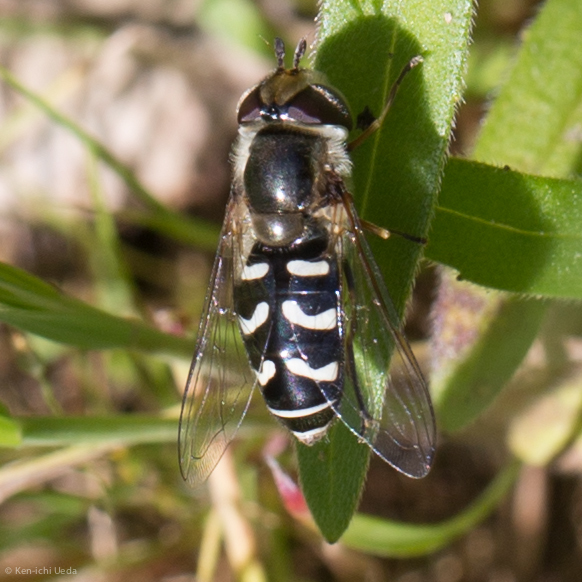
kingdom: Animalia
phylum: Arthropoda
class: Insecta
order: Diptera
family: Syrphidae
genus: Scaeva
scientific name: Scaeva affinis
